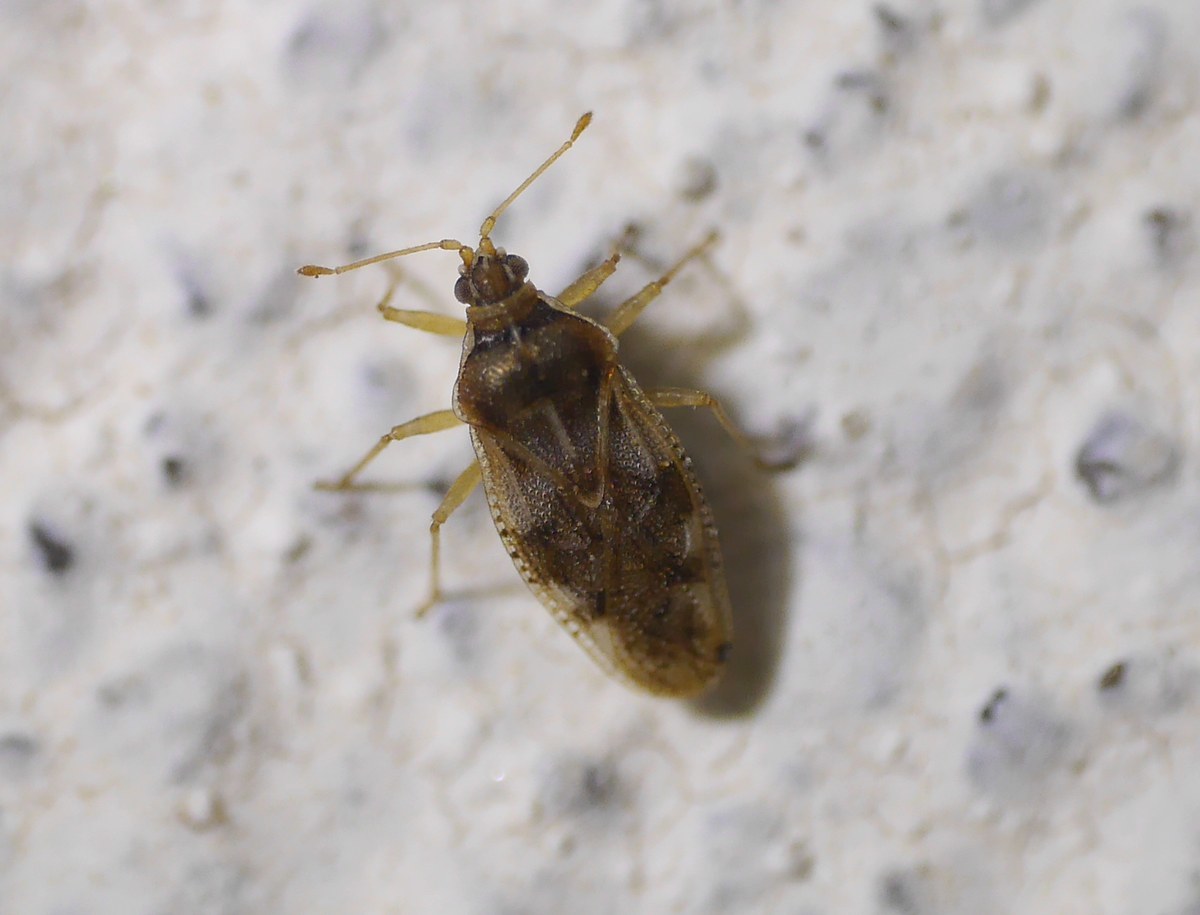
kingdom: Animalia
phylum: Arthropoda
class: Insecta
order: Hemiptera
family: Tingidae
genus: Monosteira
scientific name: Monosteira unicostata
